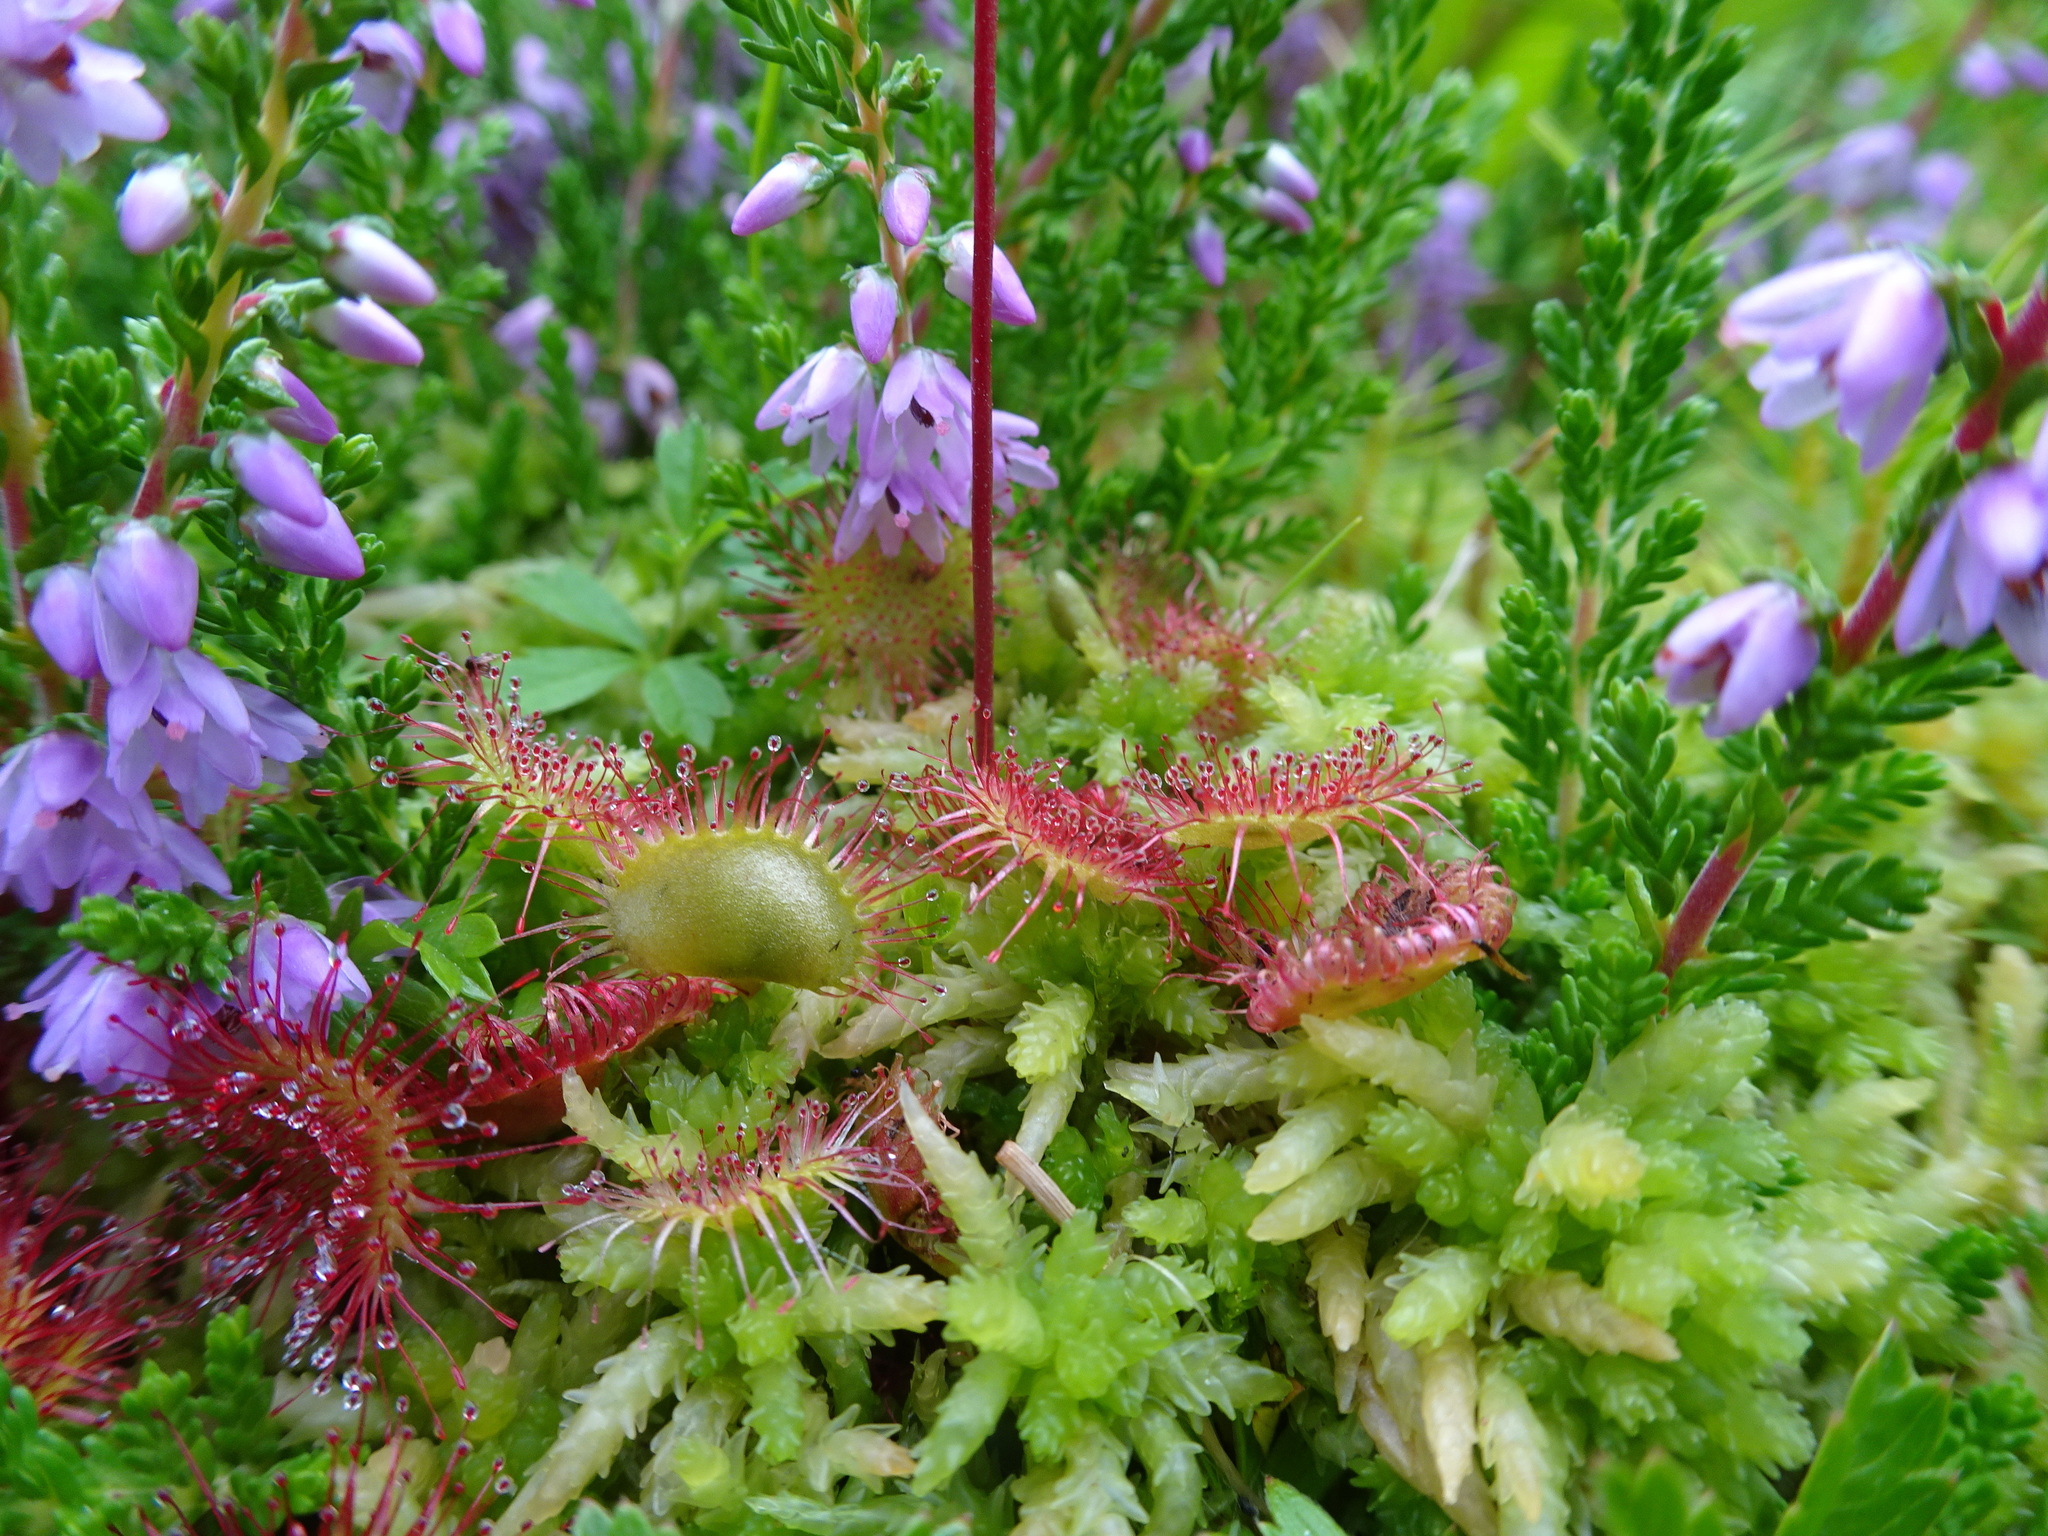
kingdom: Plantae
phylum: Tracheophyta
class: Magnoliopsida
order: Caryophyllales
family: Droseraceae
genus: Drosera
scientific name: Drosera rotundifolia
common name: Round-leaved sundew
